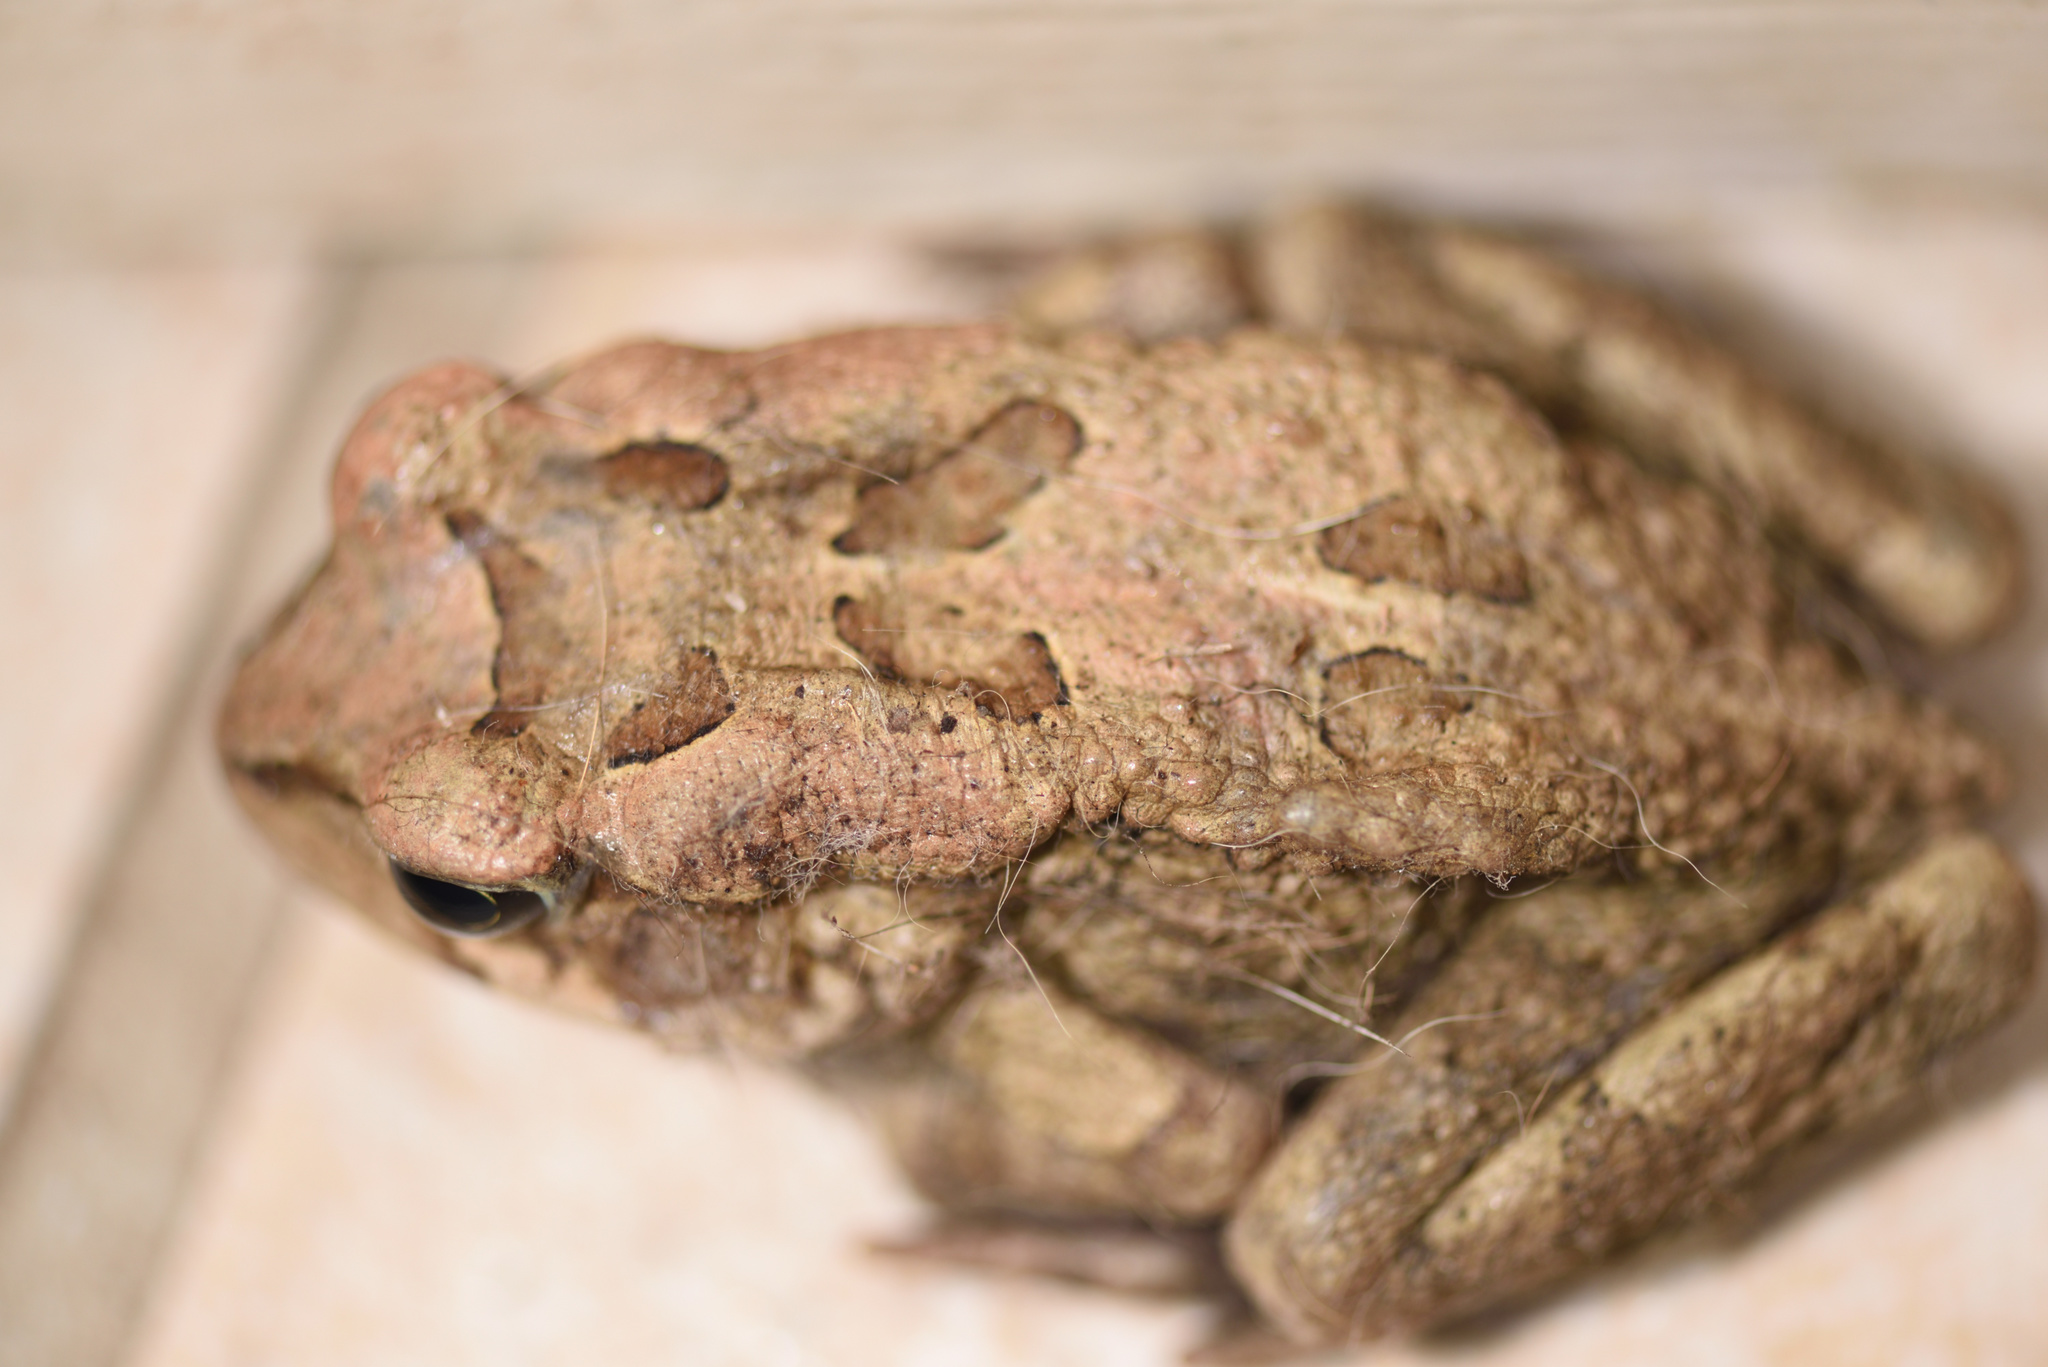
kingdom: Animalia
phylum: Chordata
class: Amphibia
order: Anura
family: Bufonidae
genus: Sclerophrys
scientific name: Sclerophrys capensis
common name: Ranger’s toad
